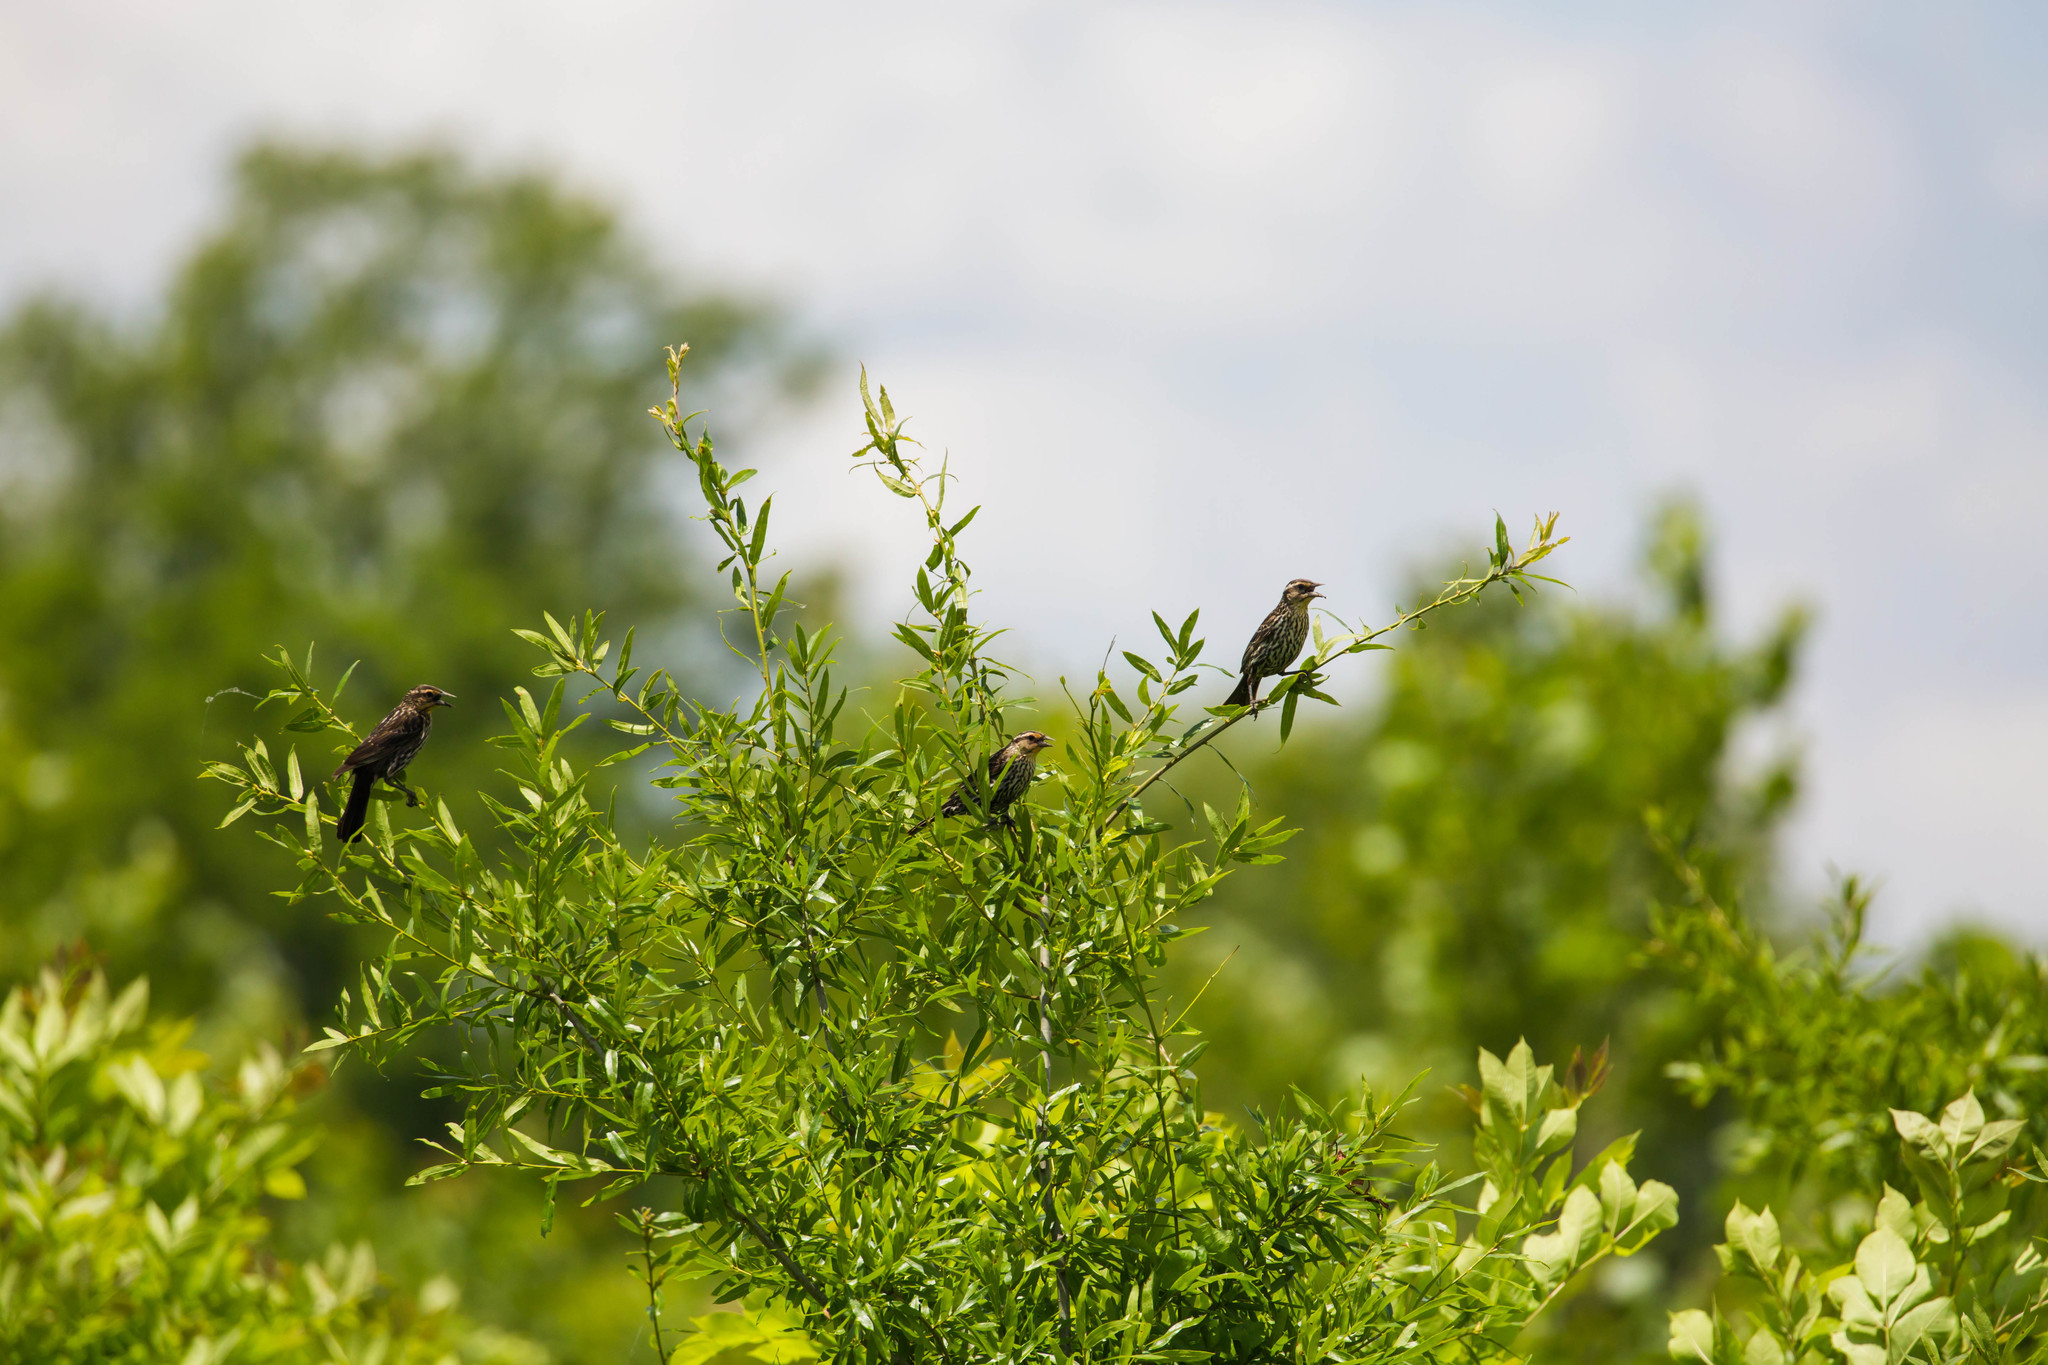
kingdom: Animalia
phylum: Chordata
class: Aves
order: Passeriformes
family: Icteridae
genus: Agelaius
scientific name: Agelaius phoeniceus
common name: Red-winged blackbird
